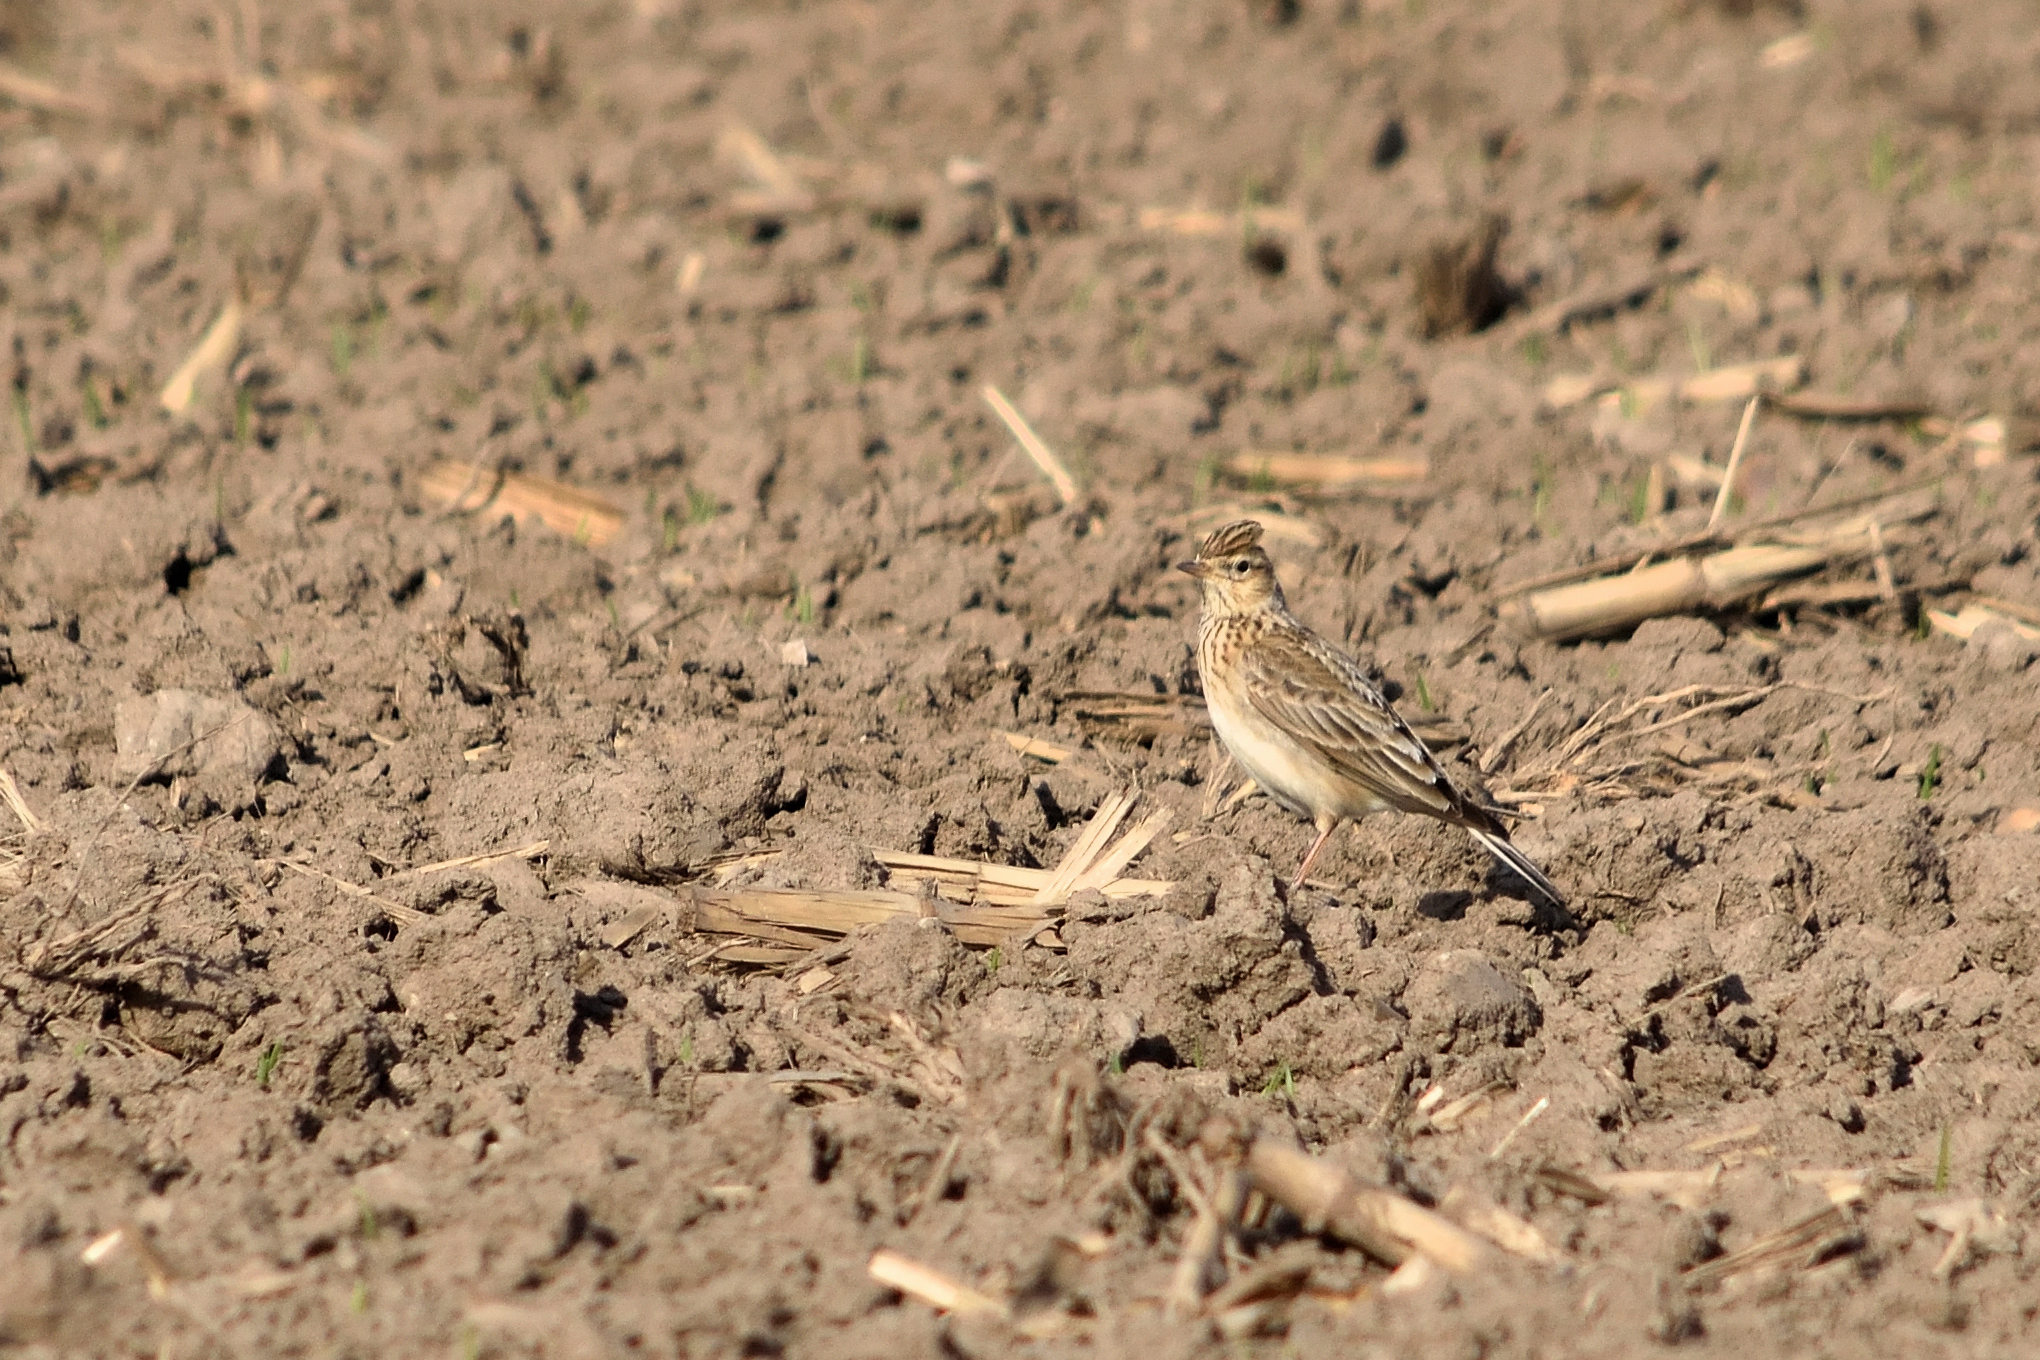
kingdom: Animalia
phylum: Chordata
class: Aves
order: Passeriformes
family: Alaudidae
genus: Alauda
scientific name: Alauda arvensis
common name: Eurasian skylark
